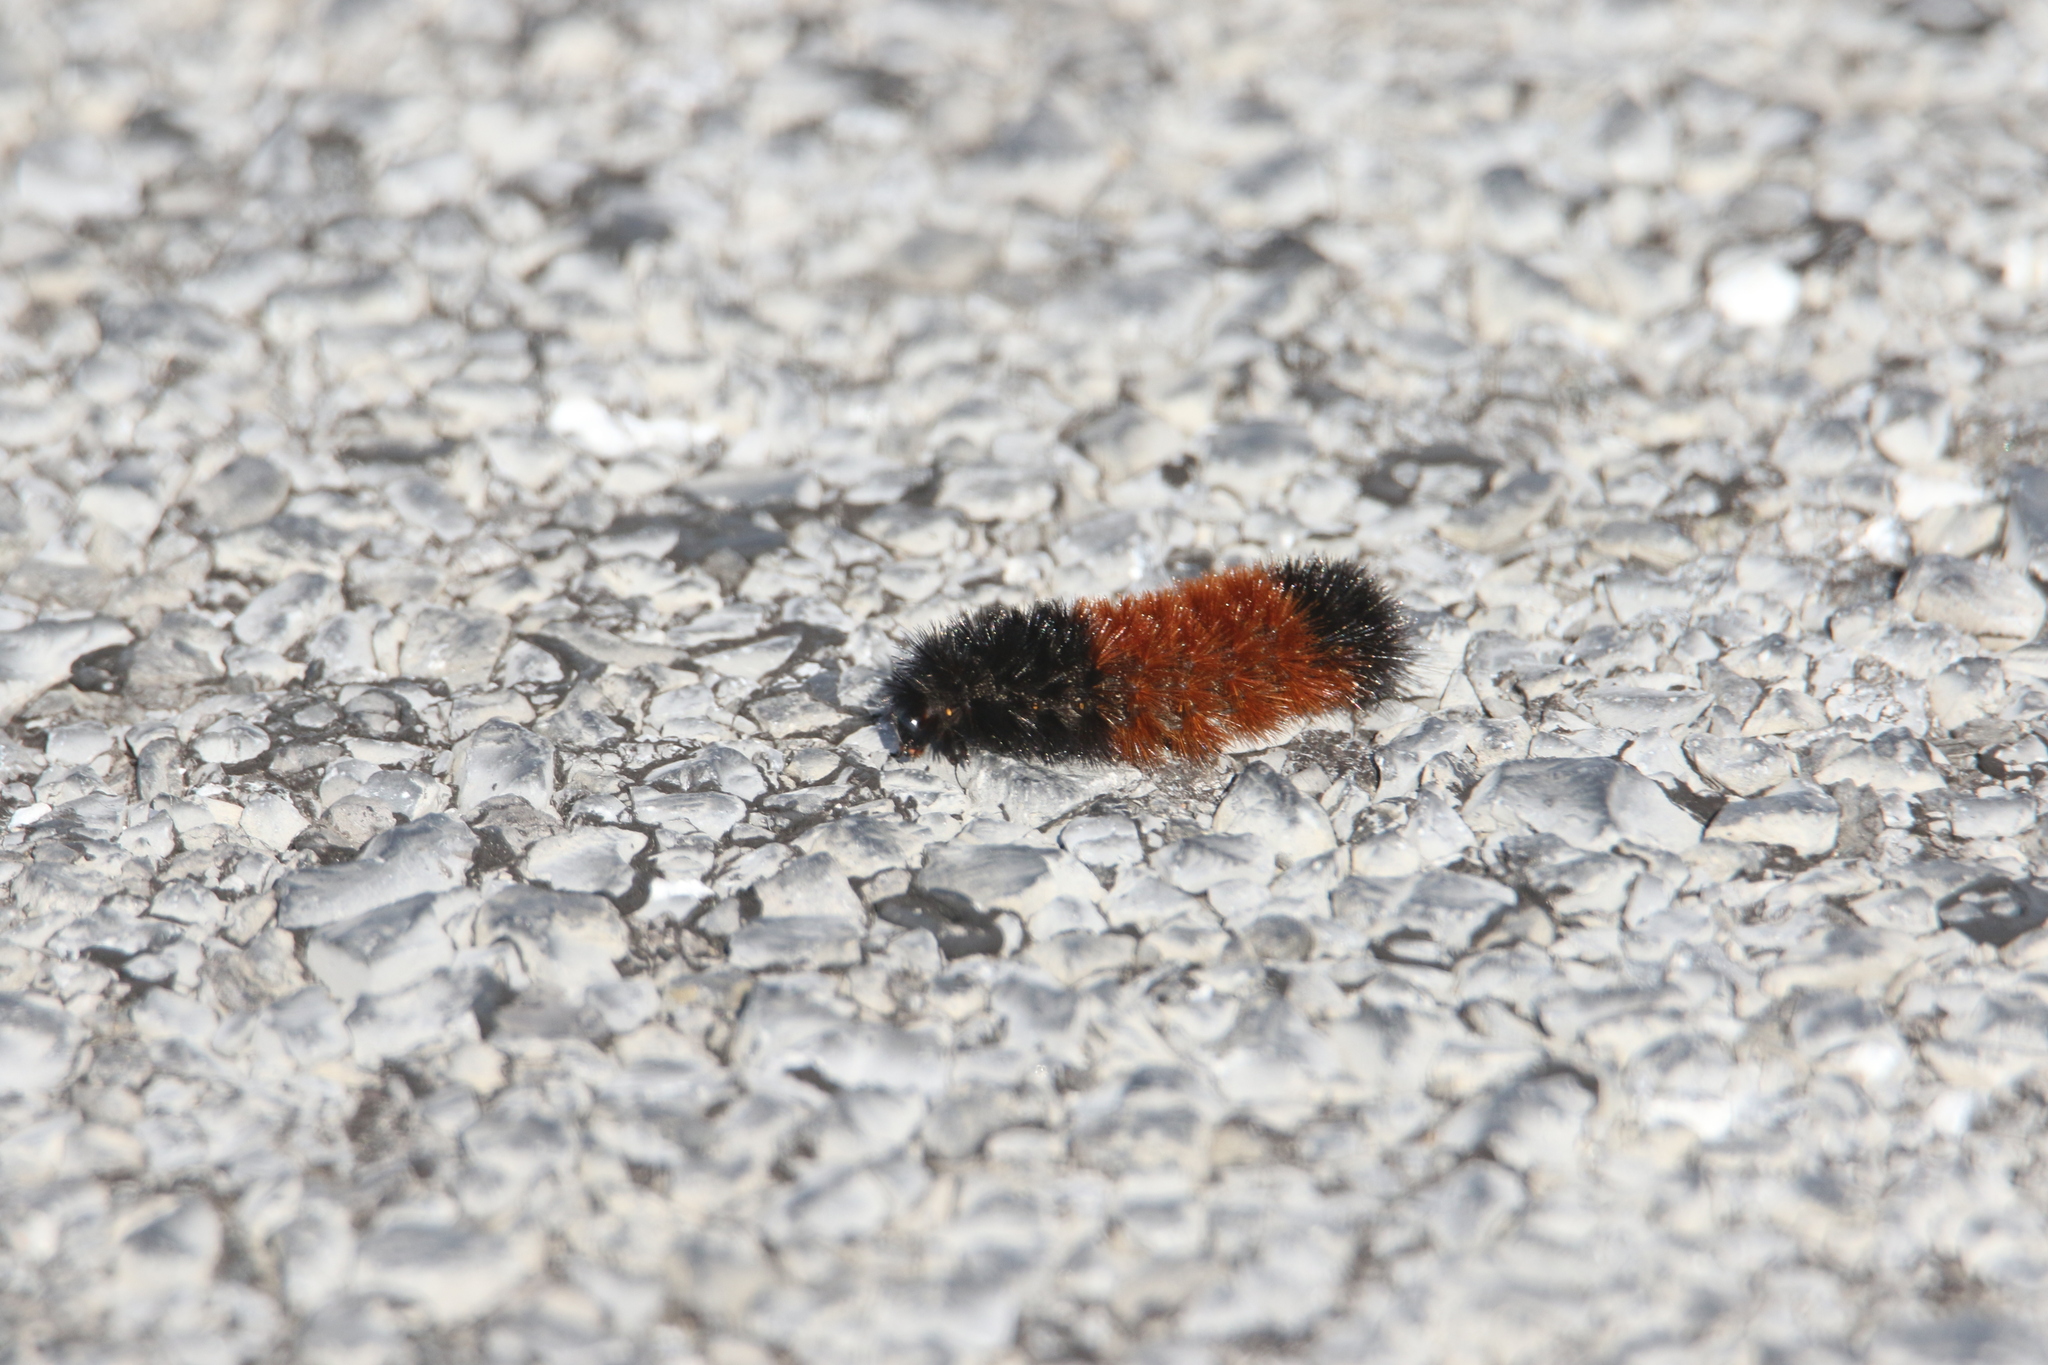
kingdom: Animalia
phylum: Arthropoda
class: Insecta
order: Lepidoptera
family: Erebidae
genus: Pyrrharctia
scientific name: Pyrrharctia isabella
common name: Isabella tiger moth
